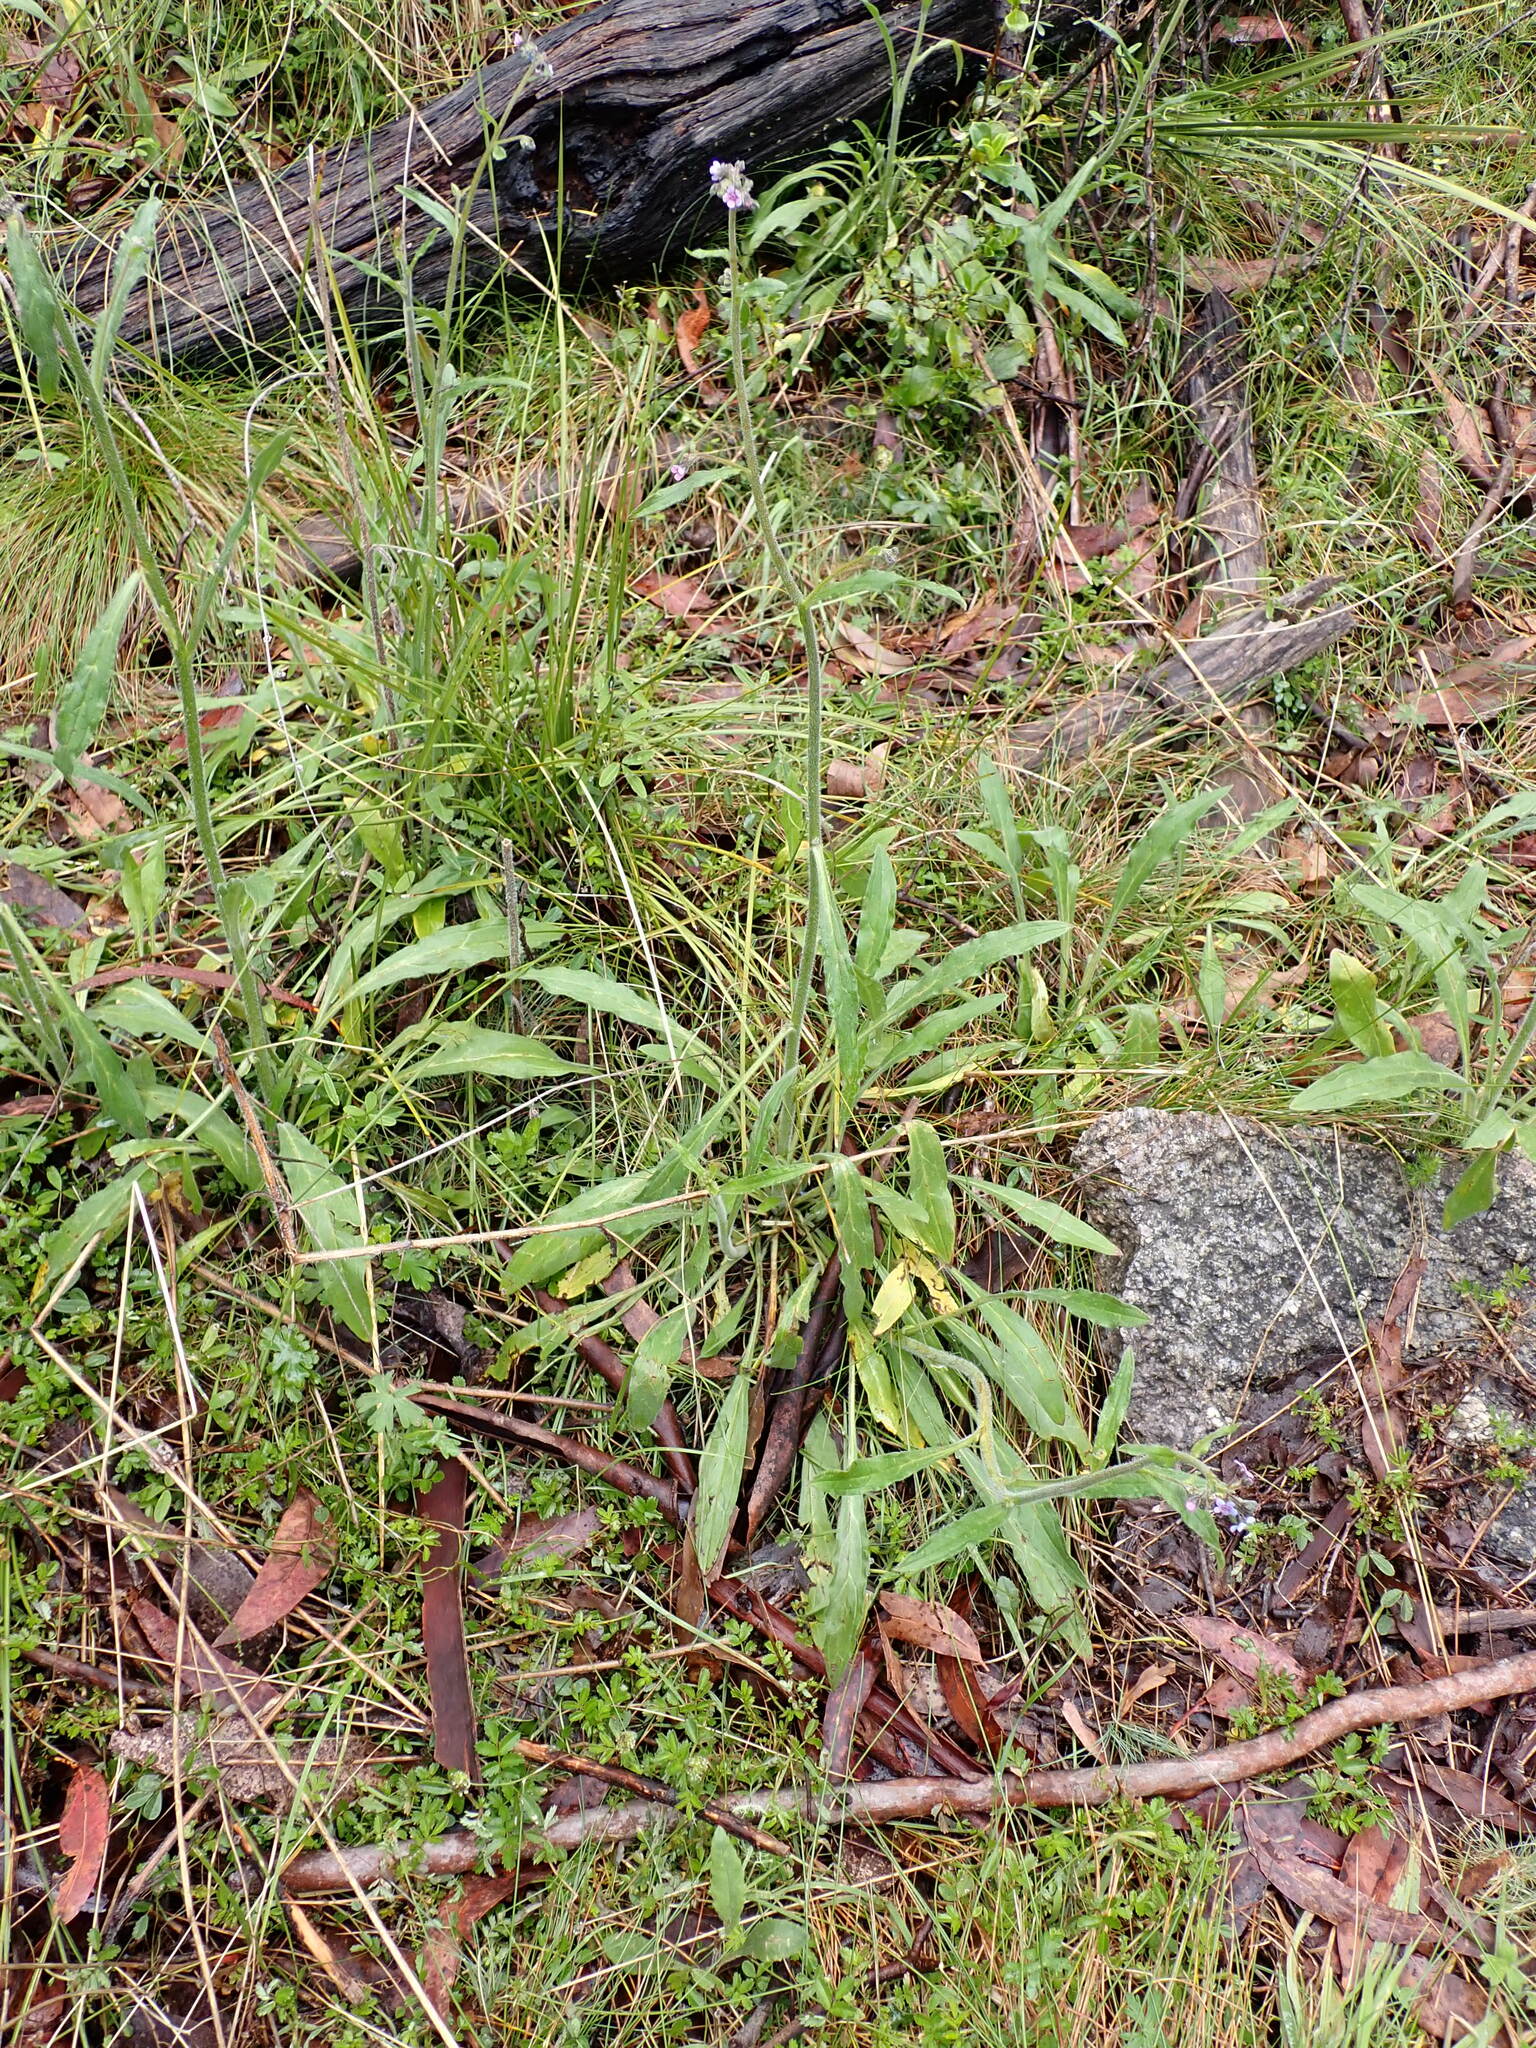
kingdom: Plantae
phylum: Tracheophyta
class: Magnoliopsida
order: Boraginales
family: Boraginaceae
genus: Cynoglossum
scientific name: Cynoglossum australe
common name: Australian hound's-tongue
